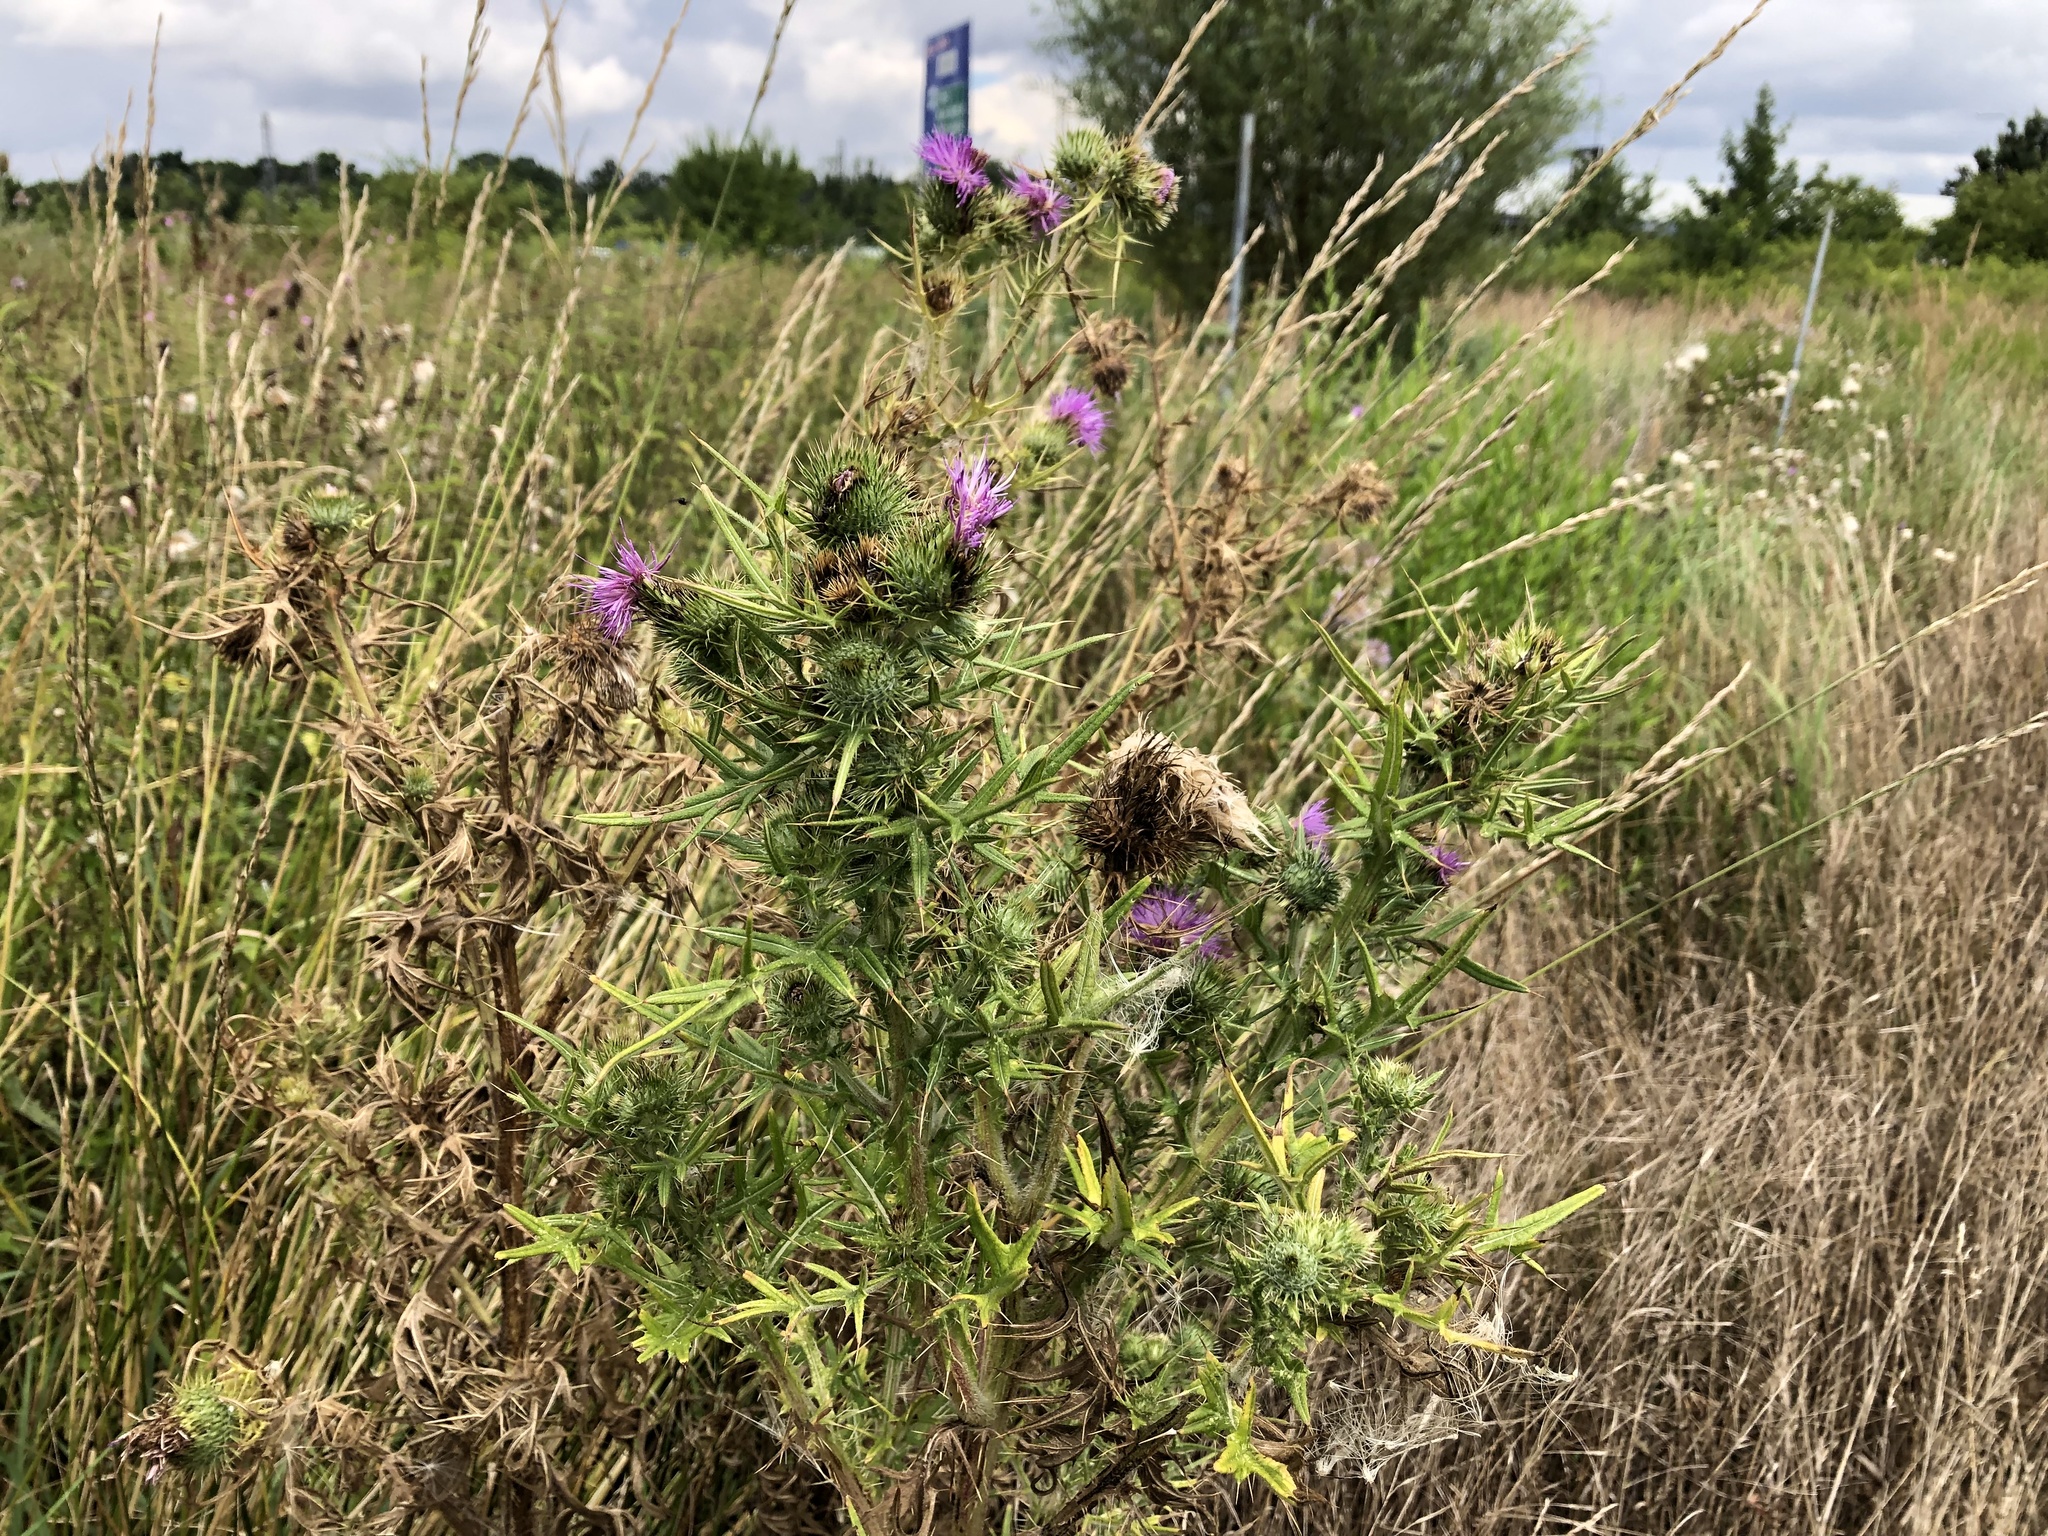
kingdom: Plantae
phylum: Tracheophyta
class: Magnoliopsida
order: Asterales
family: Asteraceae
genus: Cirsium
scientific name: Cirsium vulgare
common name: Bull thistle
